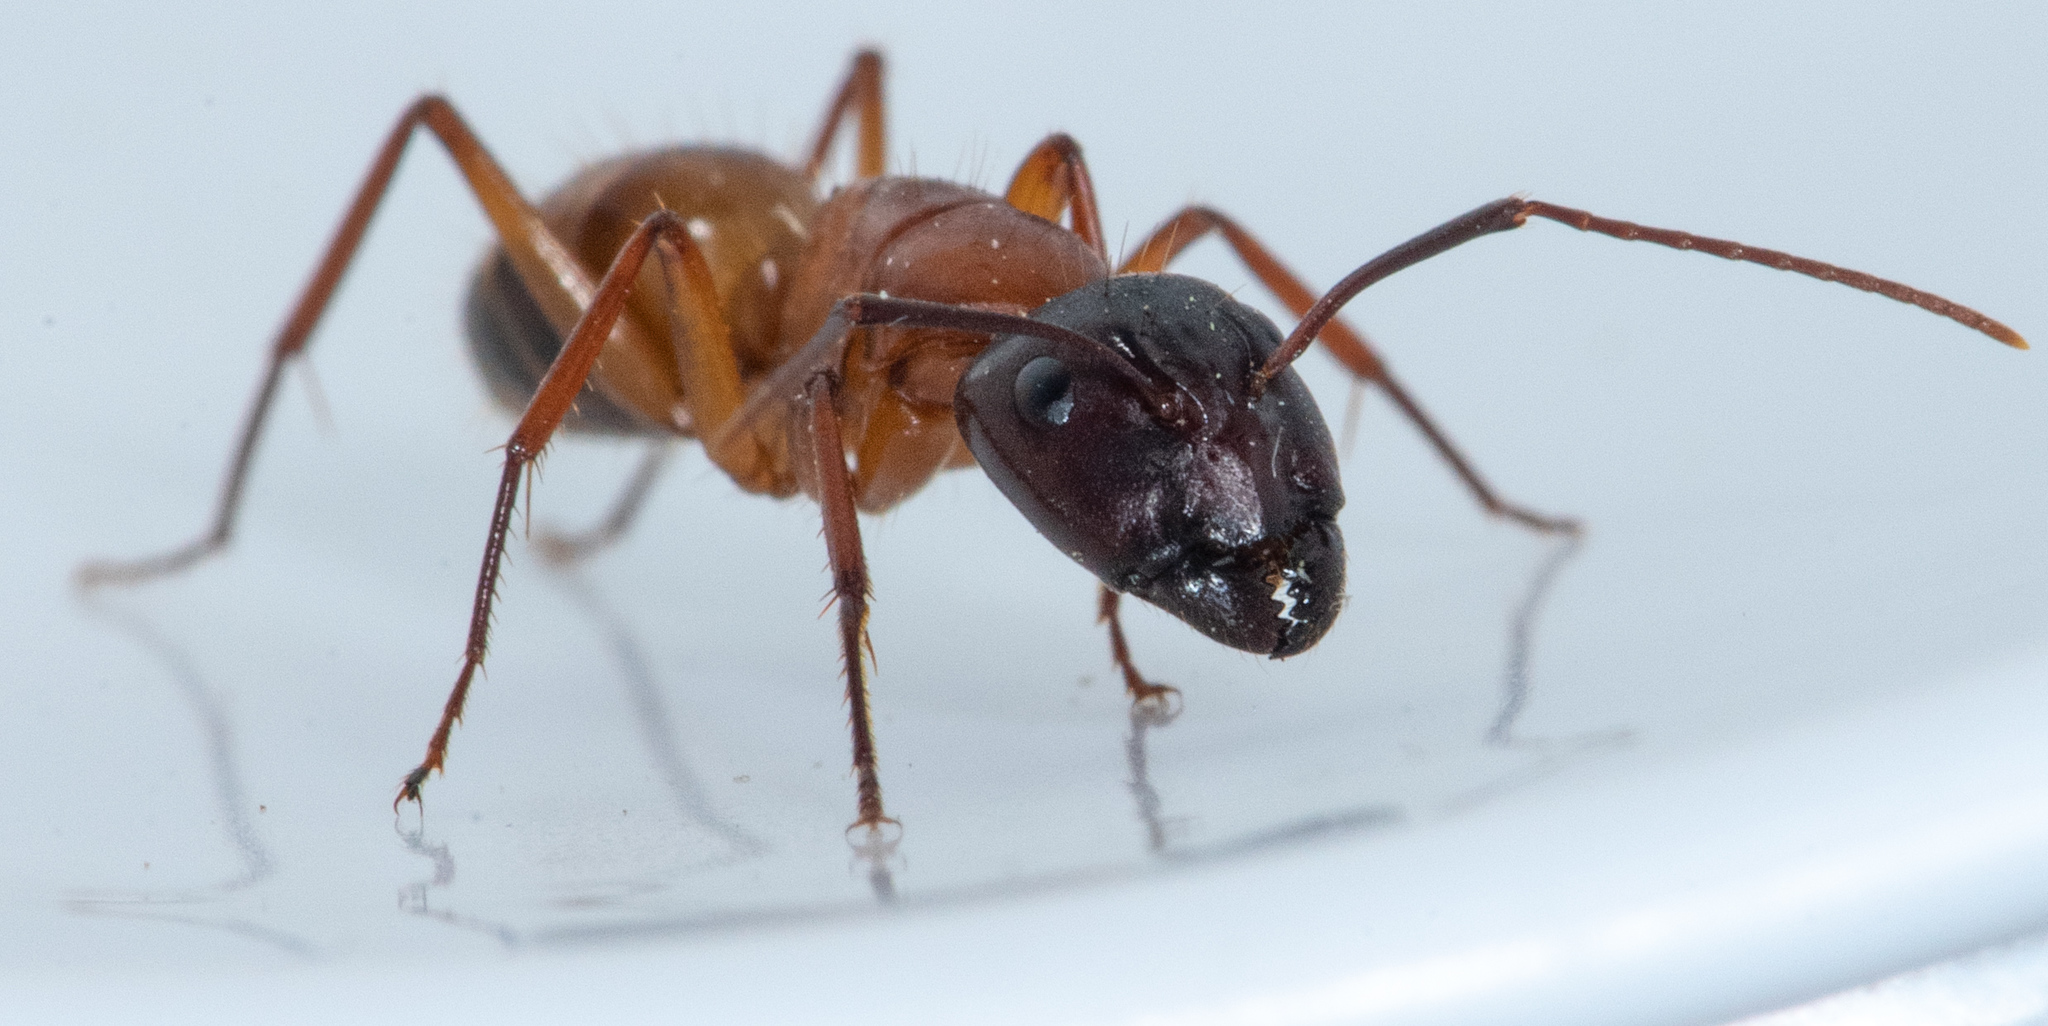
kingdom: Animalia
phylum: Arthropoda
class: Insecta
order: Hymenoptera
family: Formicidae
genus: Camponotus
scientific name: Camponotus semitestaceus
